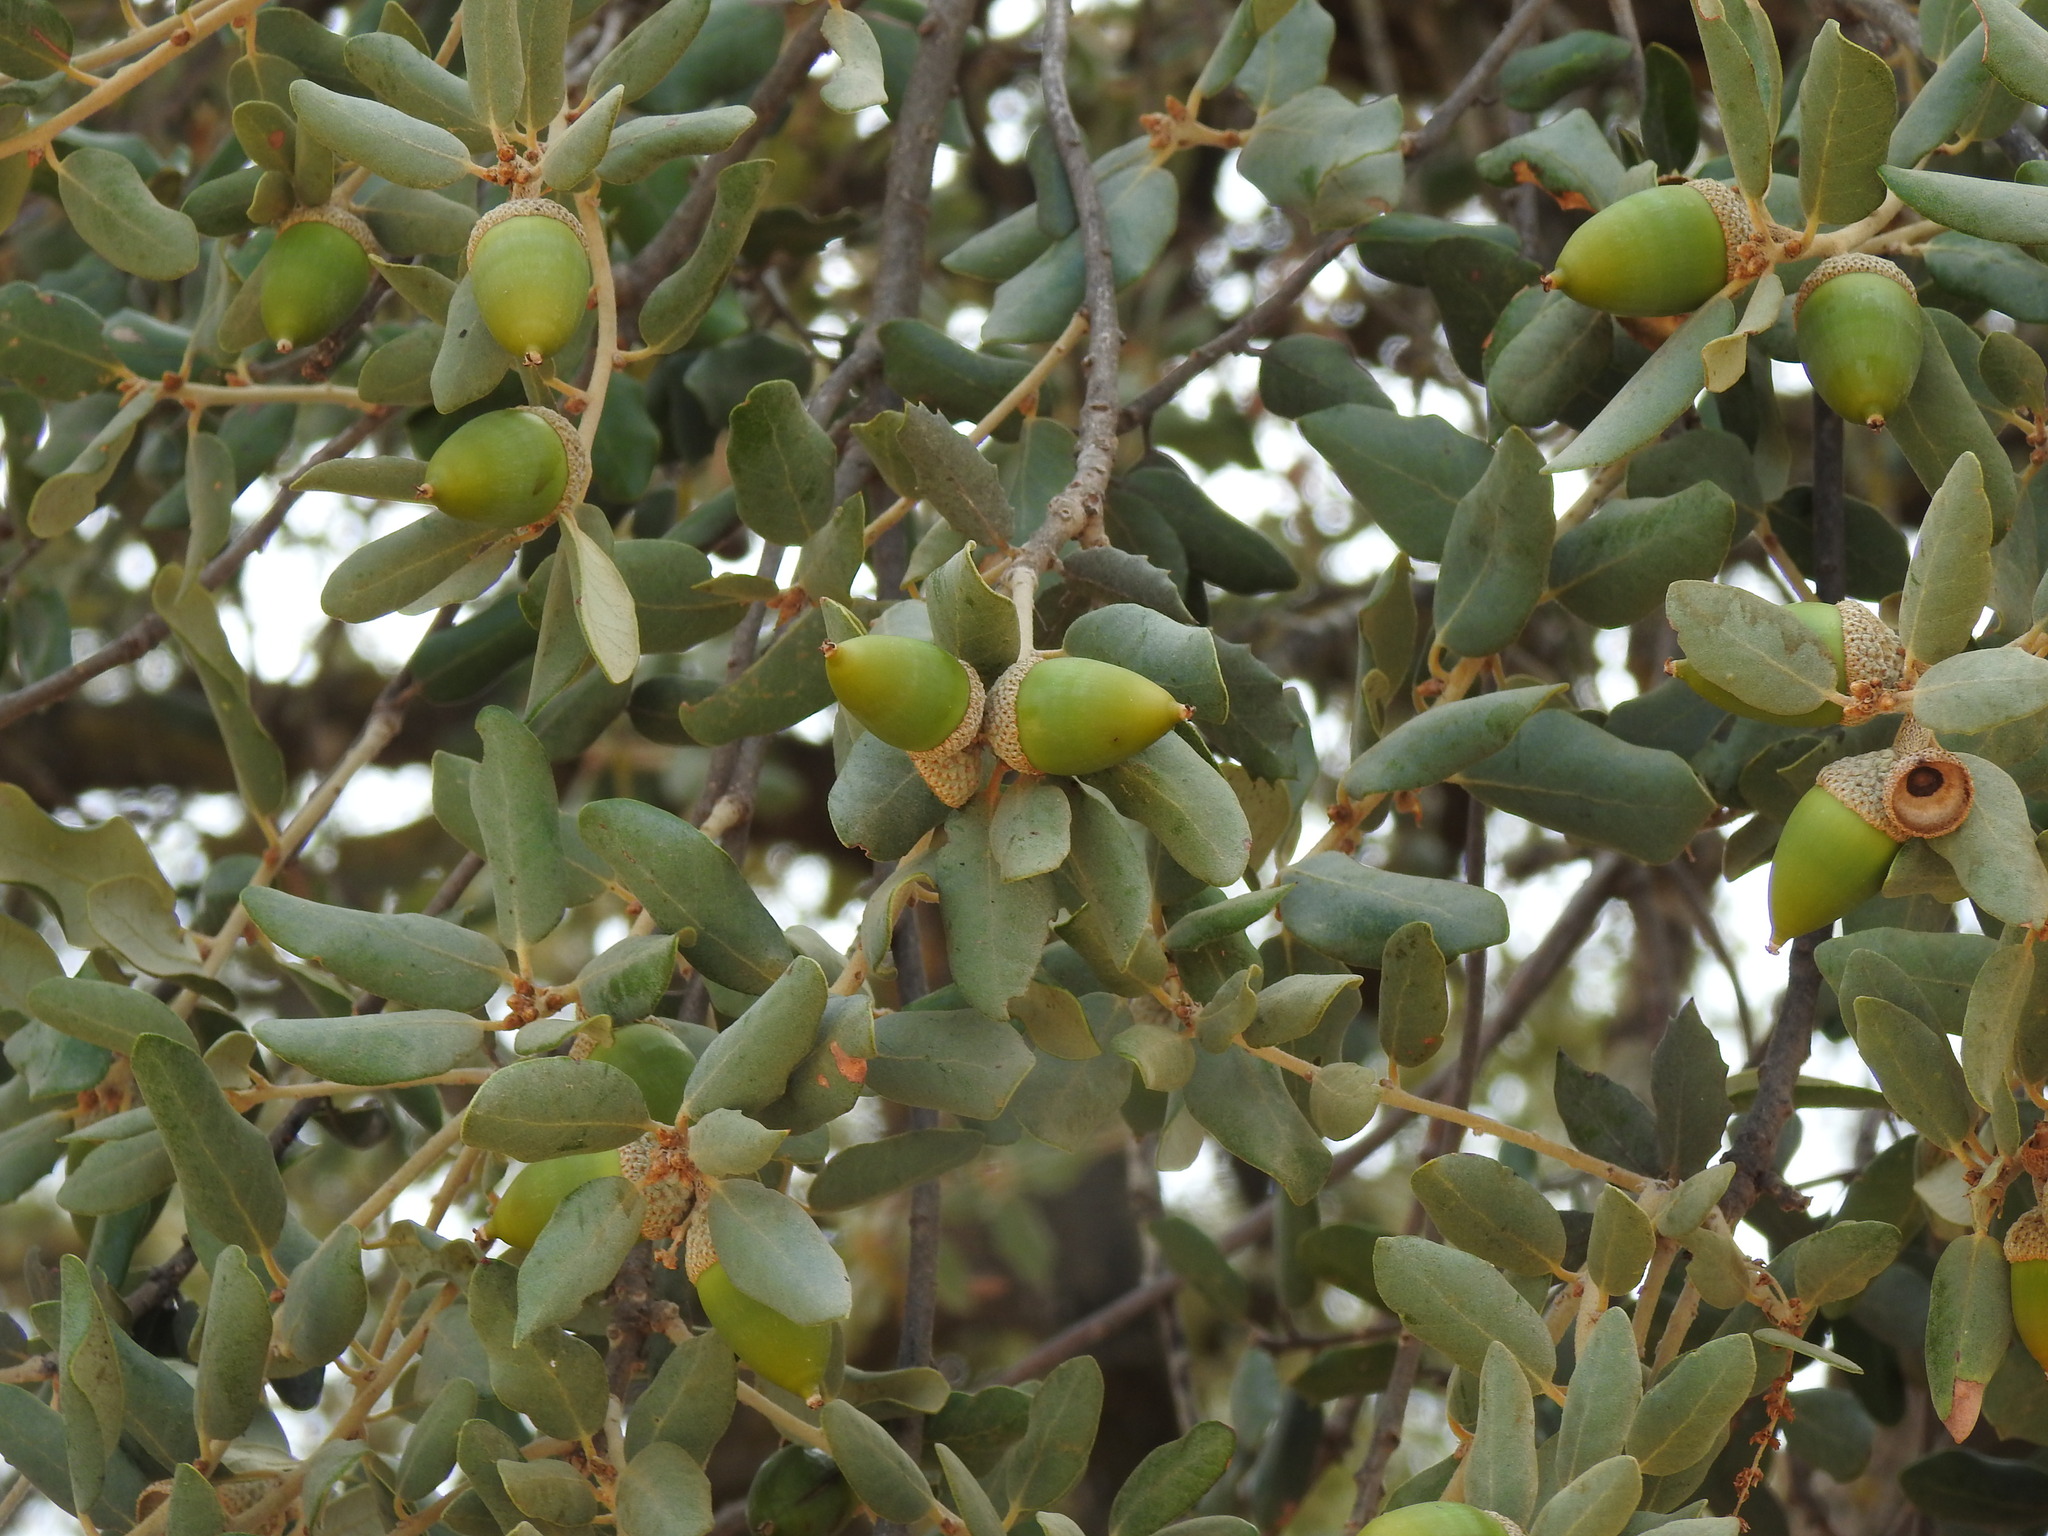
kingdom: Plantae
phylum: Tracheophyta
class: Magnoliopsida
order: Fagales
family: Fagaceae
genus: Quercus
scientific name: Quercus rotundifolia
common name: Holm oak
